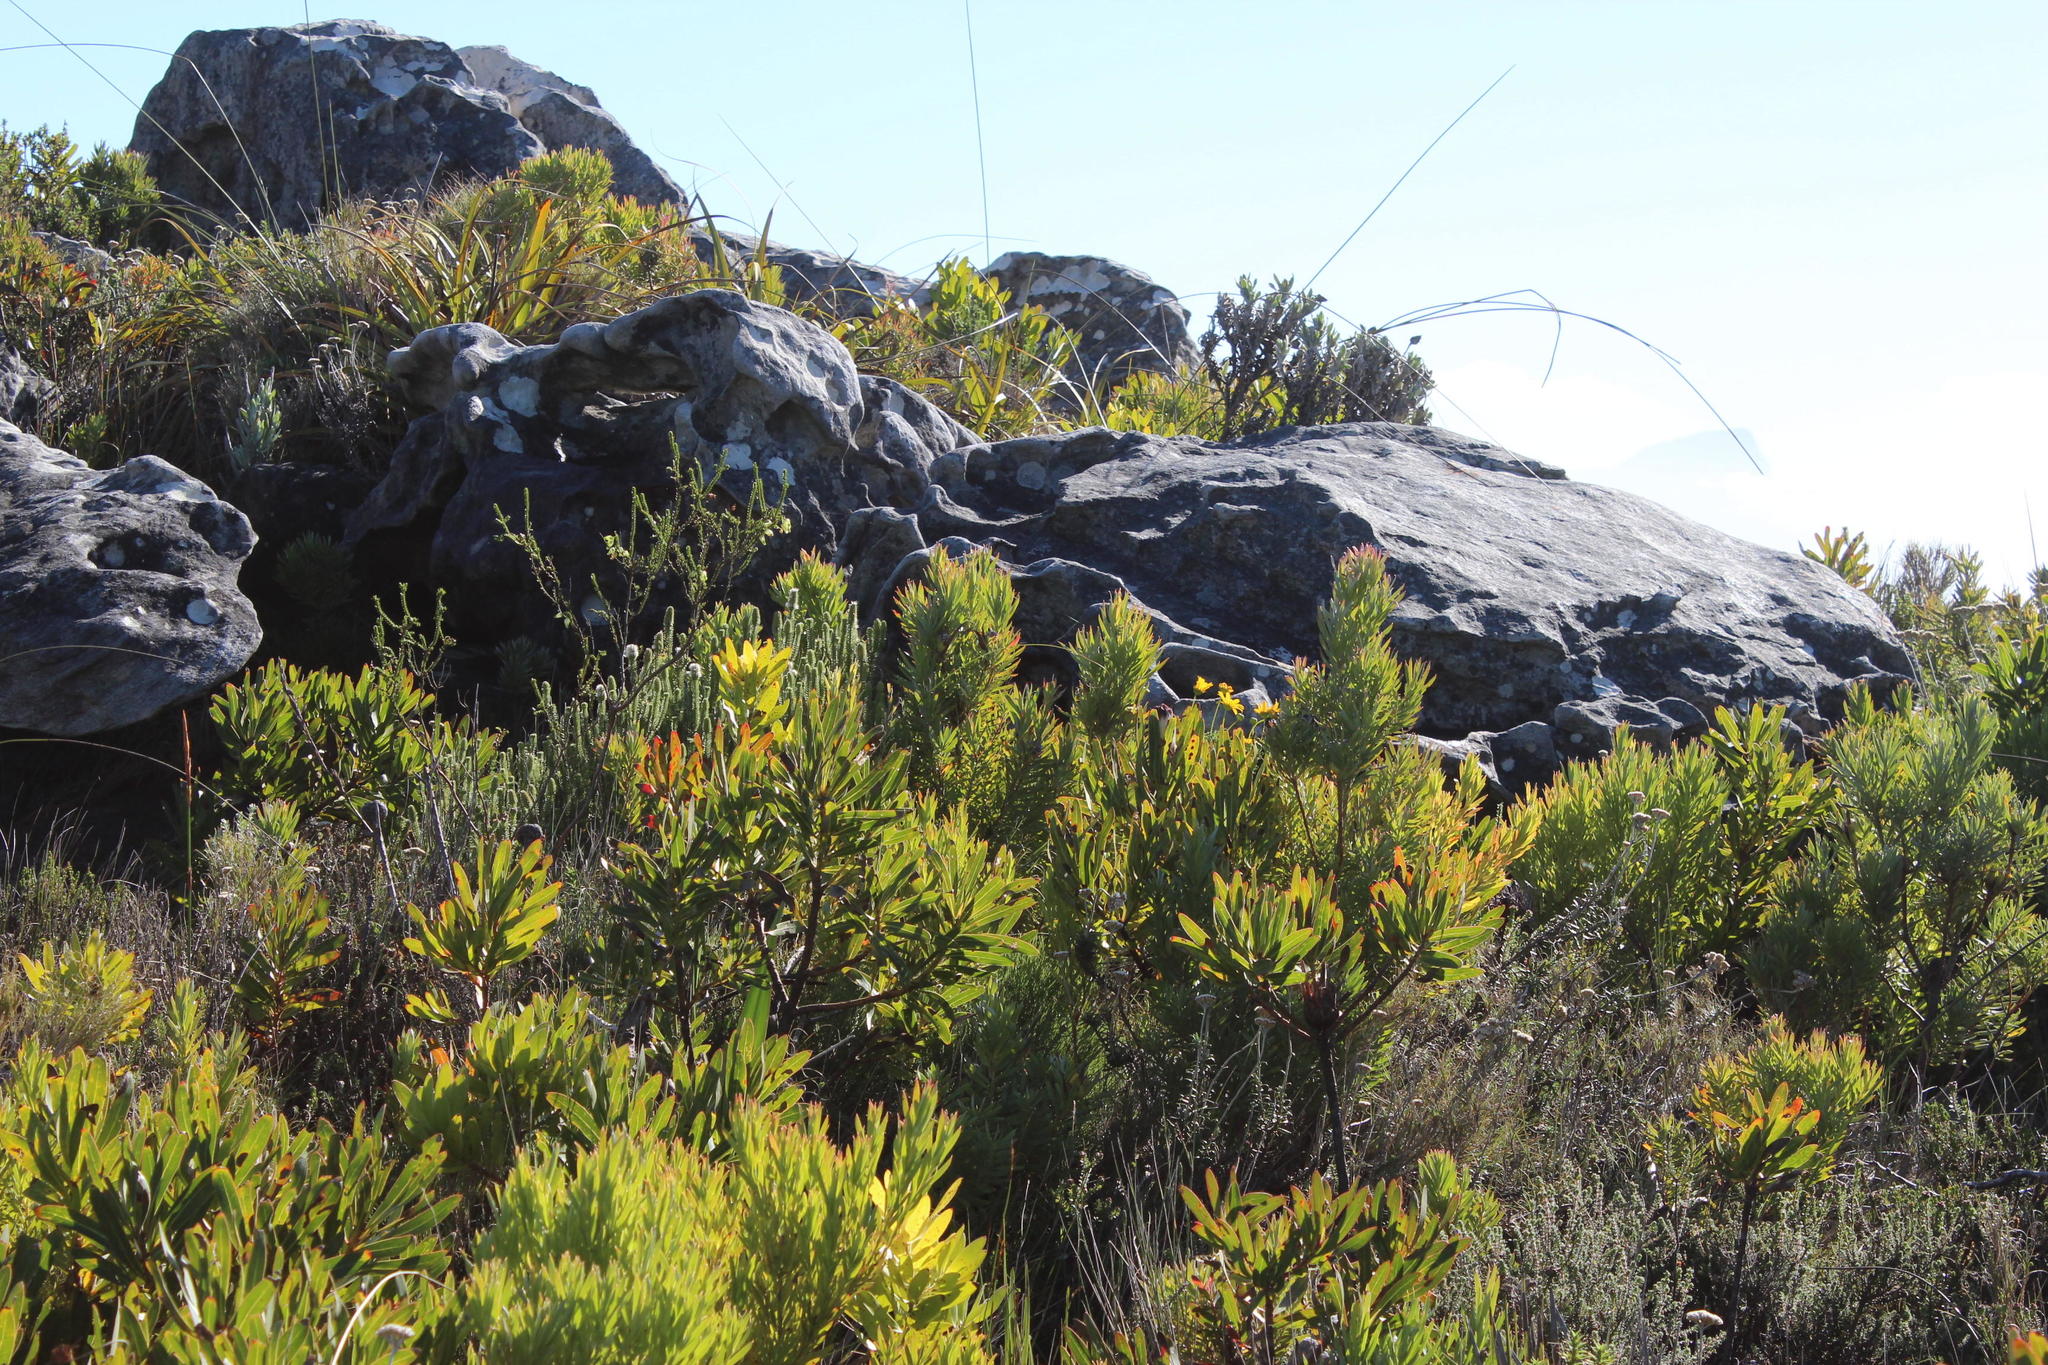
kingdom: Plantae
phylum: Tracheophyta
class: Magnoliopsida
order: Ericales
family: Ericaceae
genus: Erica
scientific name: Erica urna-viridis
